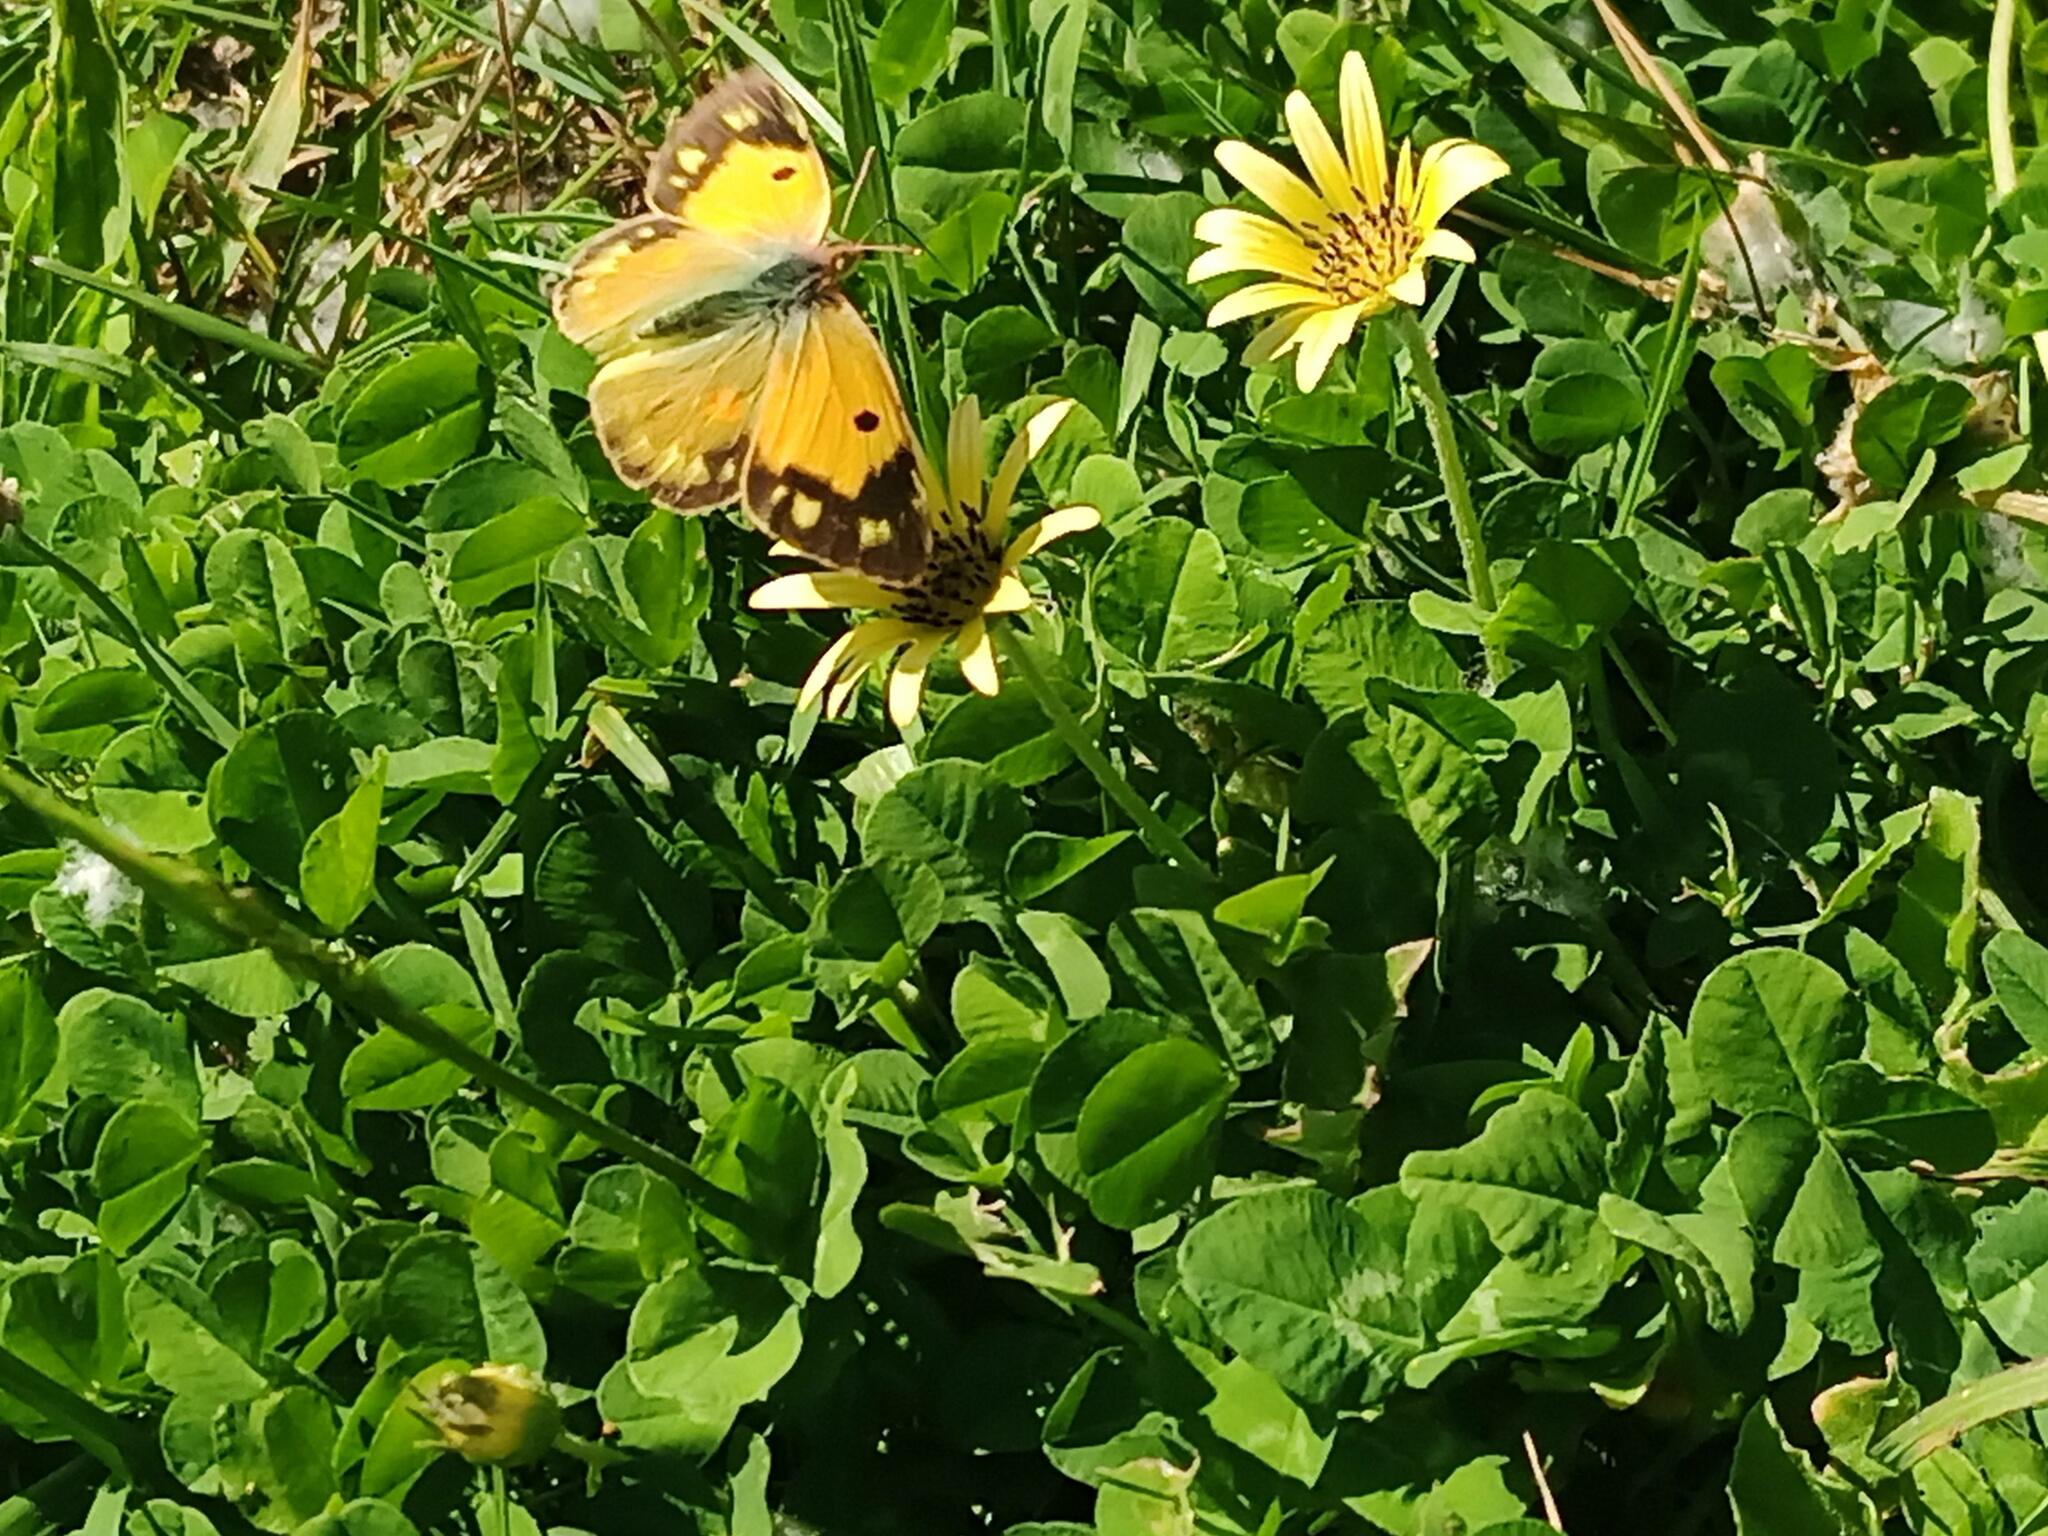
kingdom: Animalia
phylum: Arthropoda
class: Insecta
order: Lepidoptera
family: Pieridae
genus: Colias
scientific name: Colias croceus
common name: Clouded yellow
